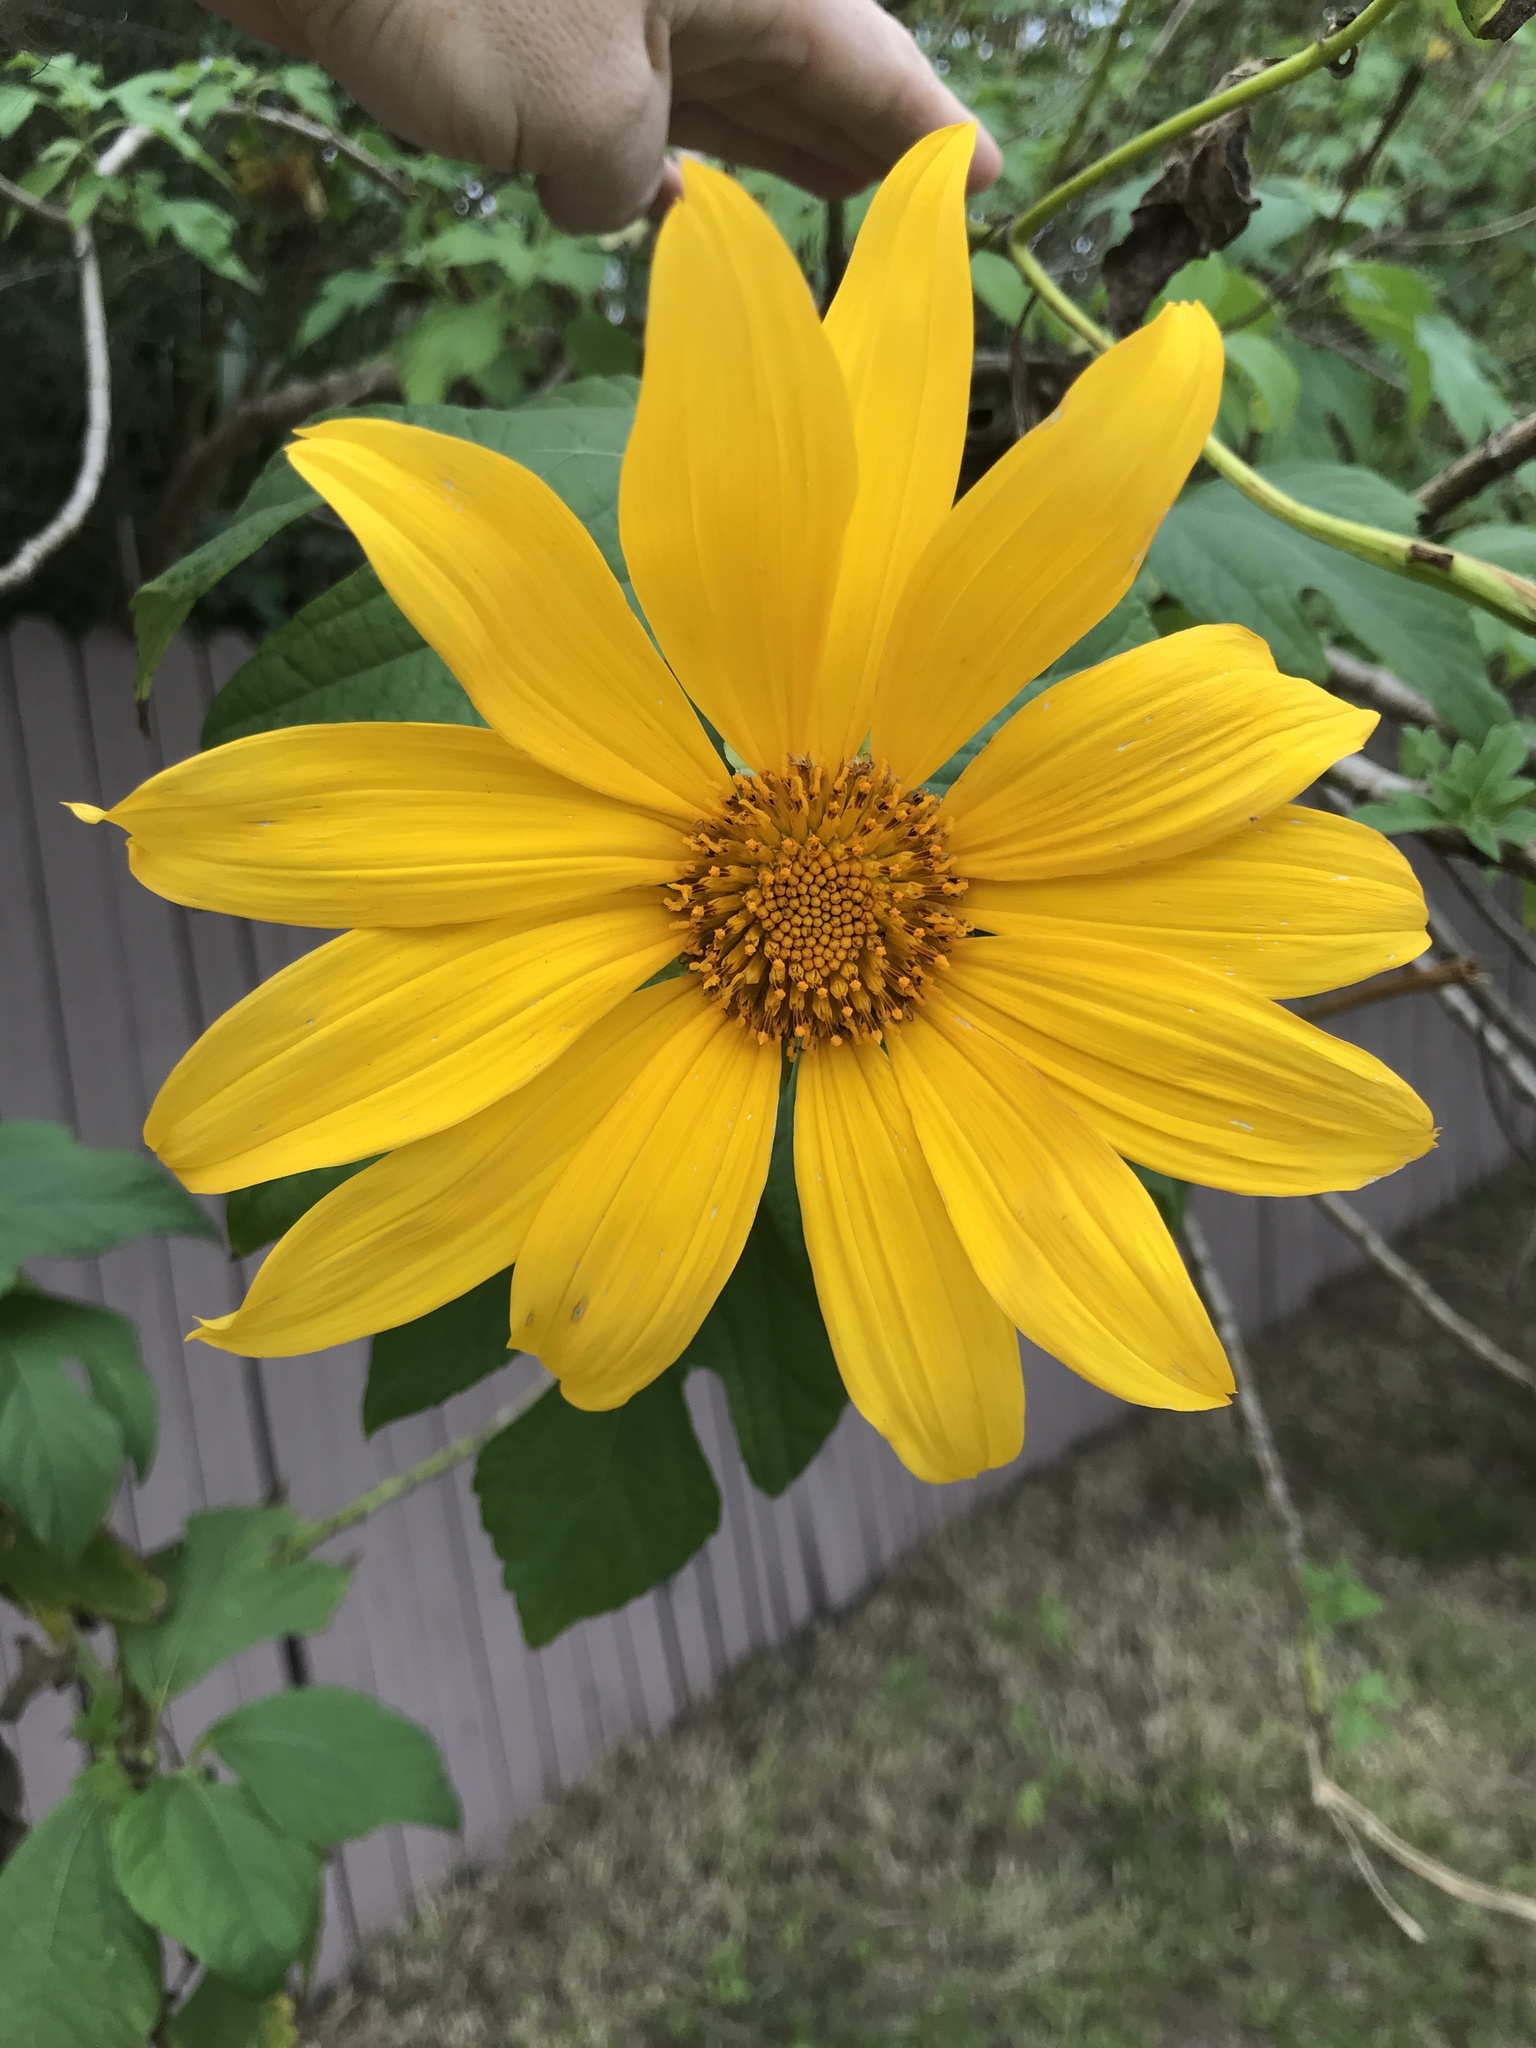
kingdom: Plantae
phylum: Tracheophyta
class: Magnoliopsida
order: Asterales
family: Asteraceae
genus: Tithonia
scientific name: Tithonia diversifolia
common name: Tree marigold
